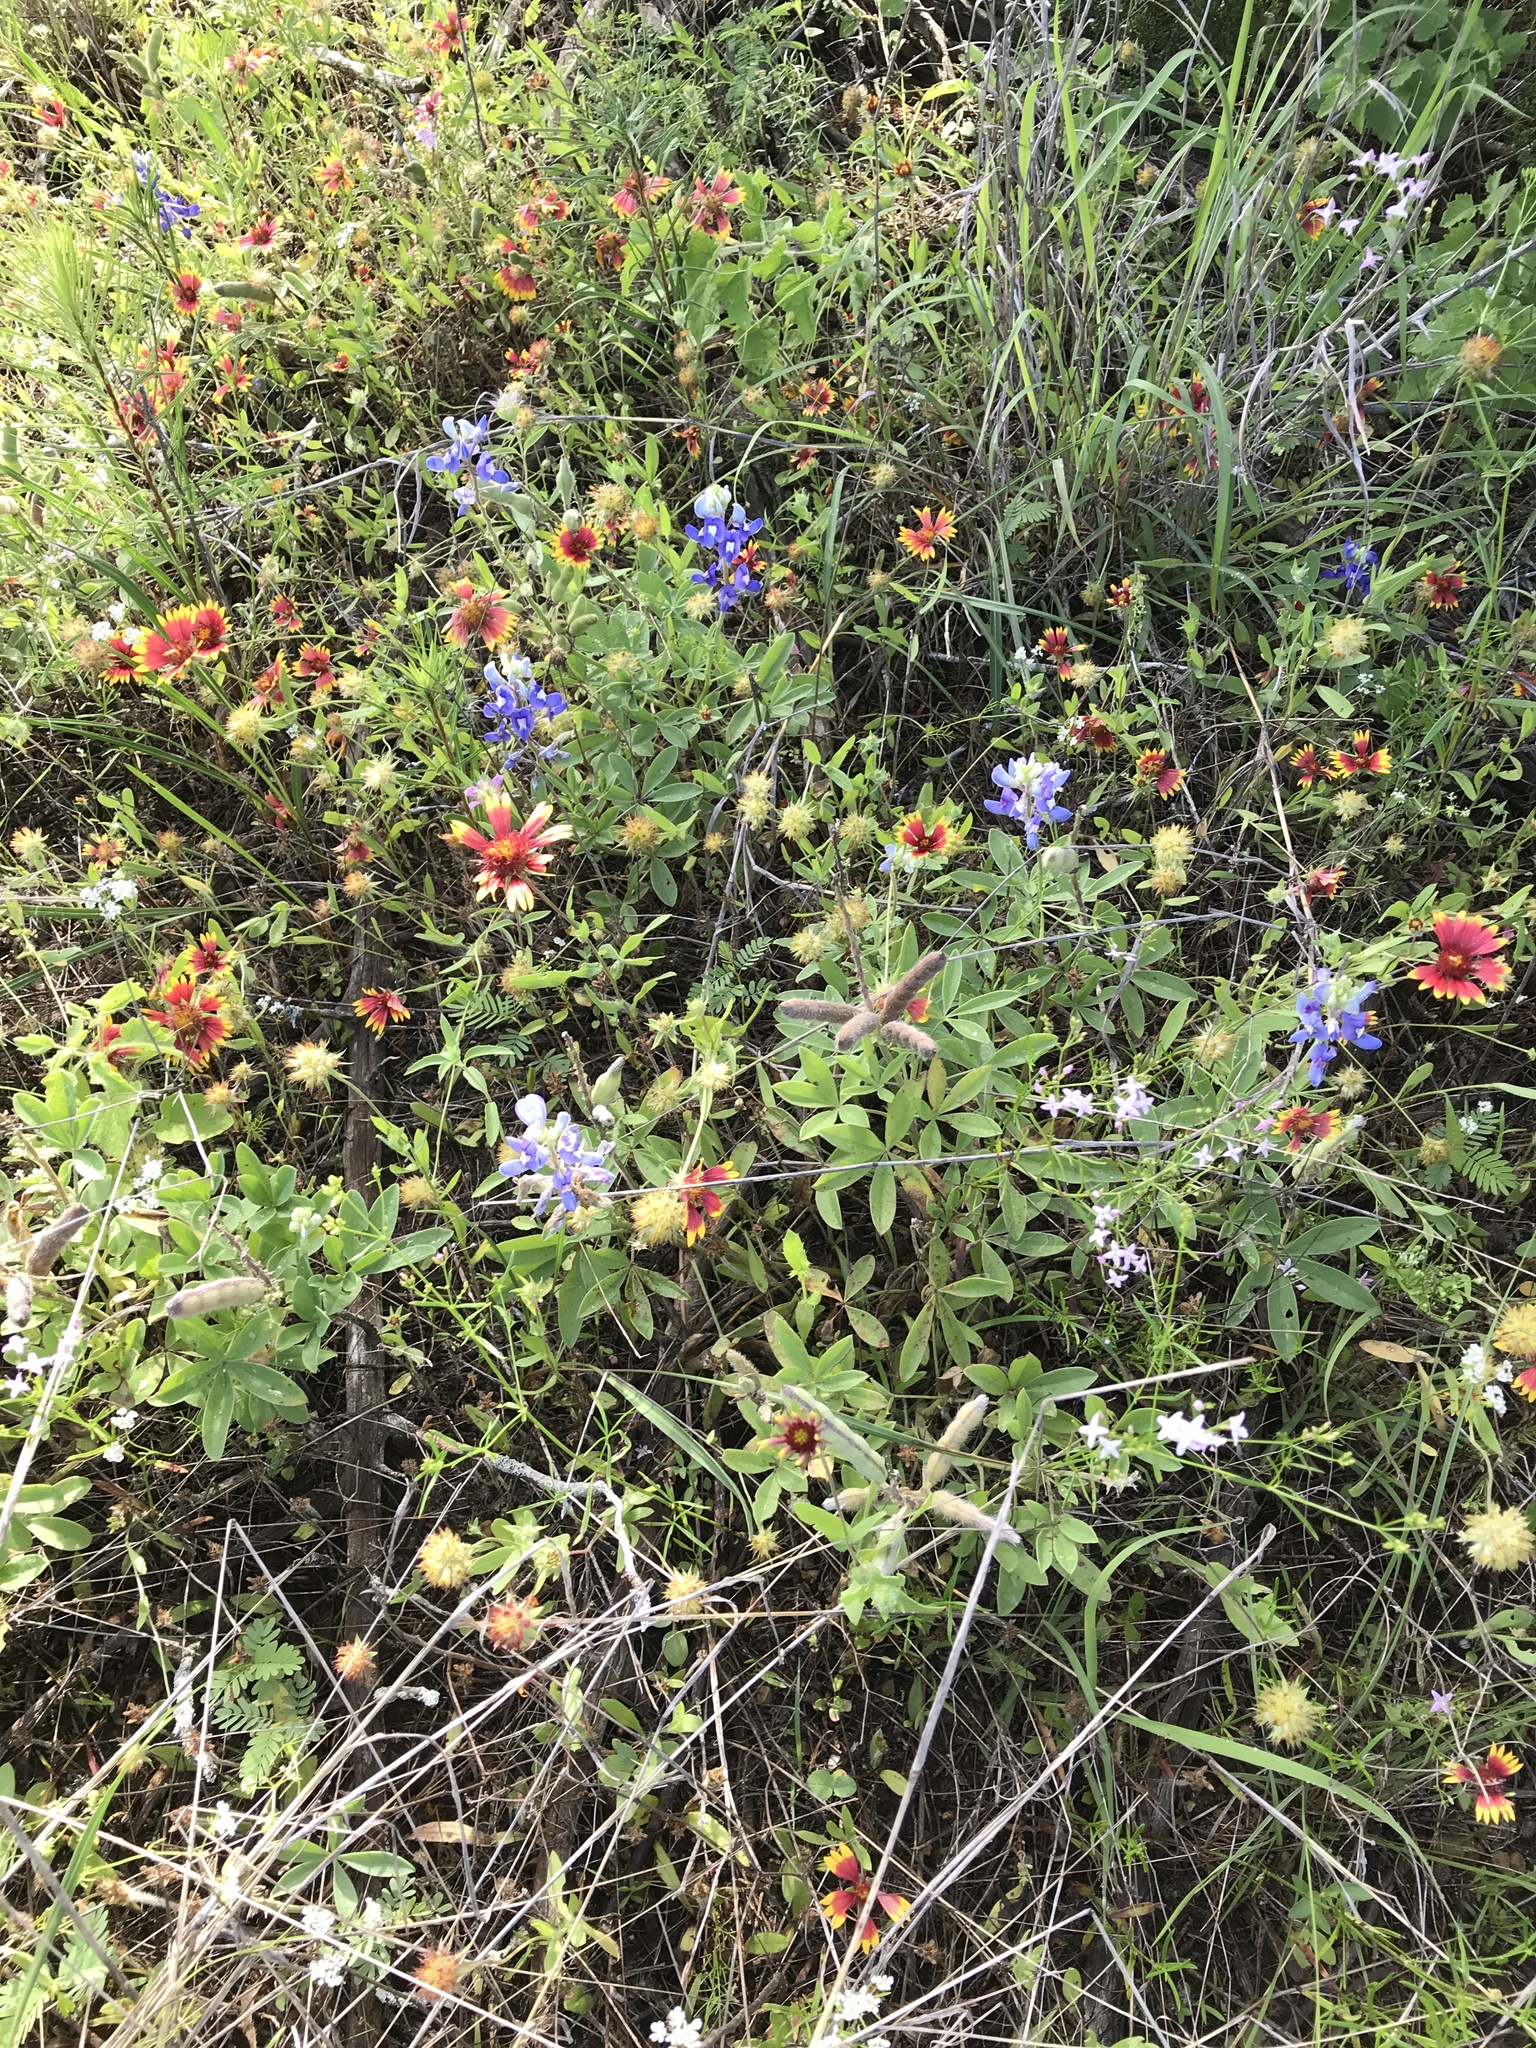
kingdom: Plantae
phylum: Tracheophyta
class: Magnoliopsida
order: Fabales
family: Fabaceae
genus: Lupinus
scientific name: Lupinus texensis
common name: Texas bluebonnet
